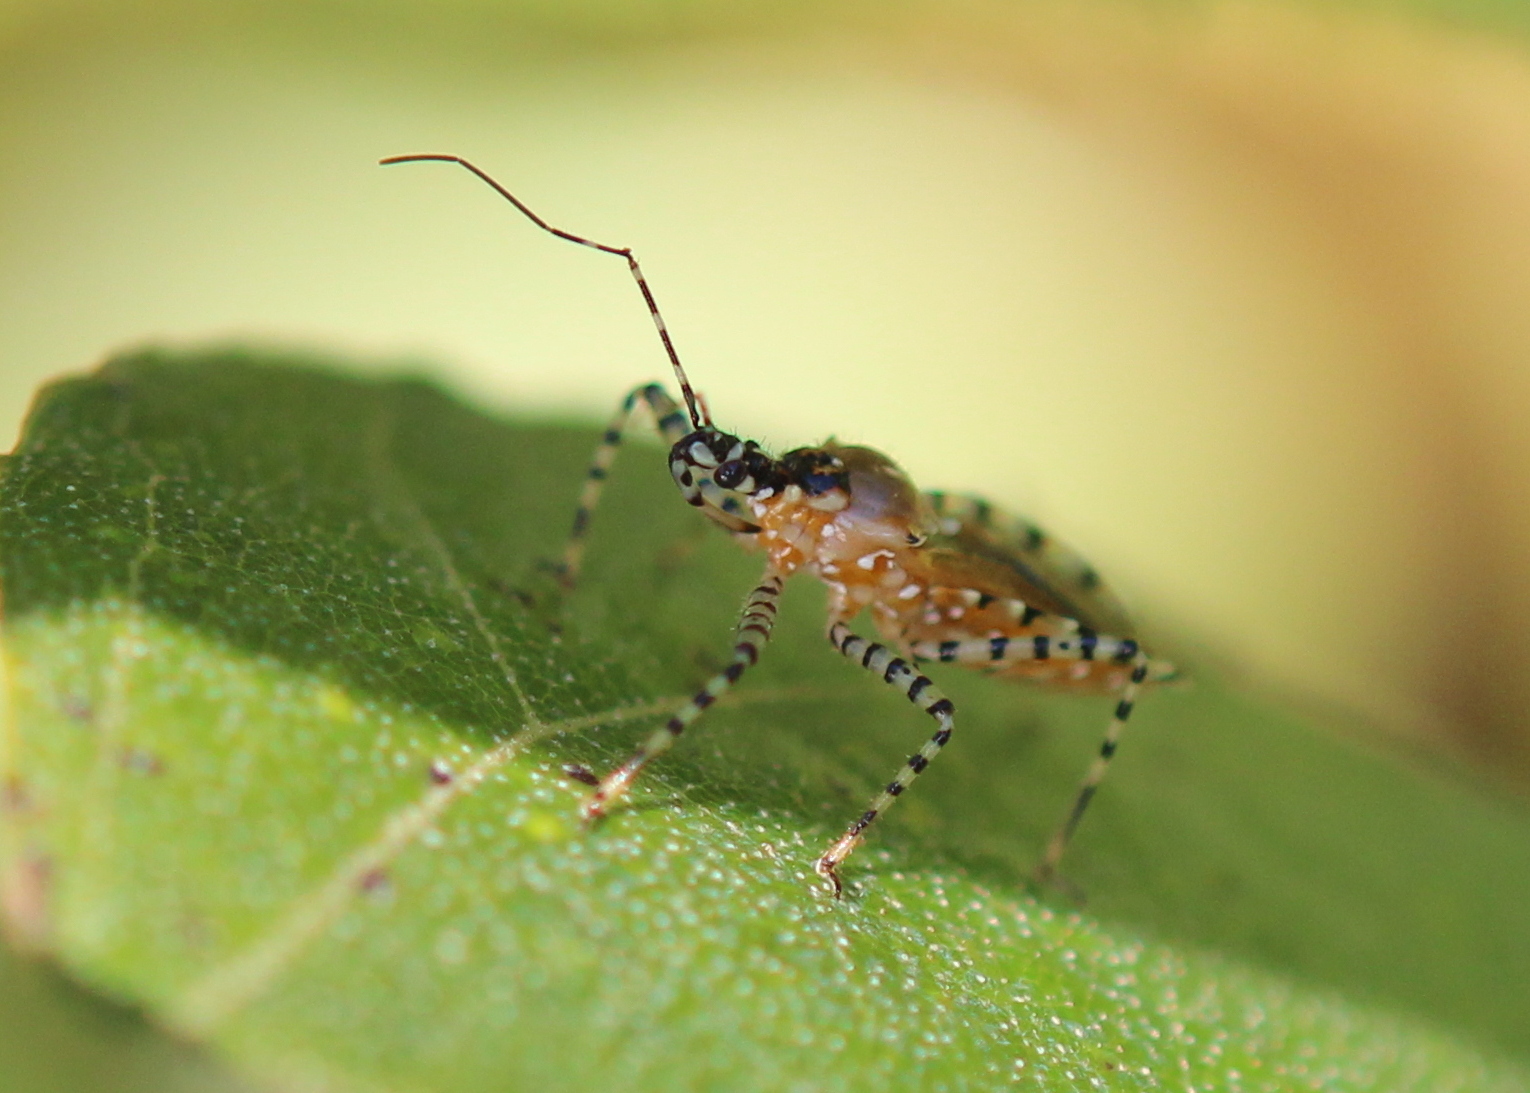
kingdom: Animalia
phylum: Arthropoda
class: Insecta
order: Hemiptera
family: Reduviidae
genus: Pselliopus
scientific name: Pselliopus cinctus
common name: Ringed assassin bug
